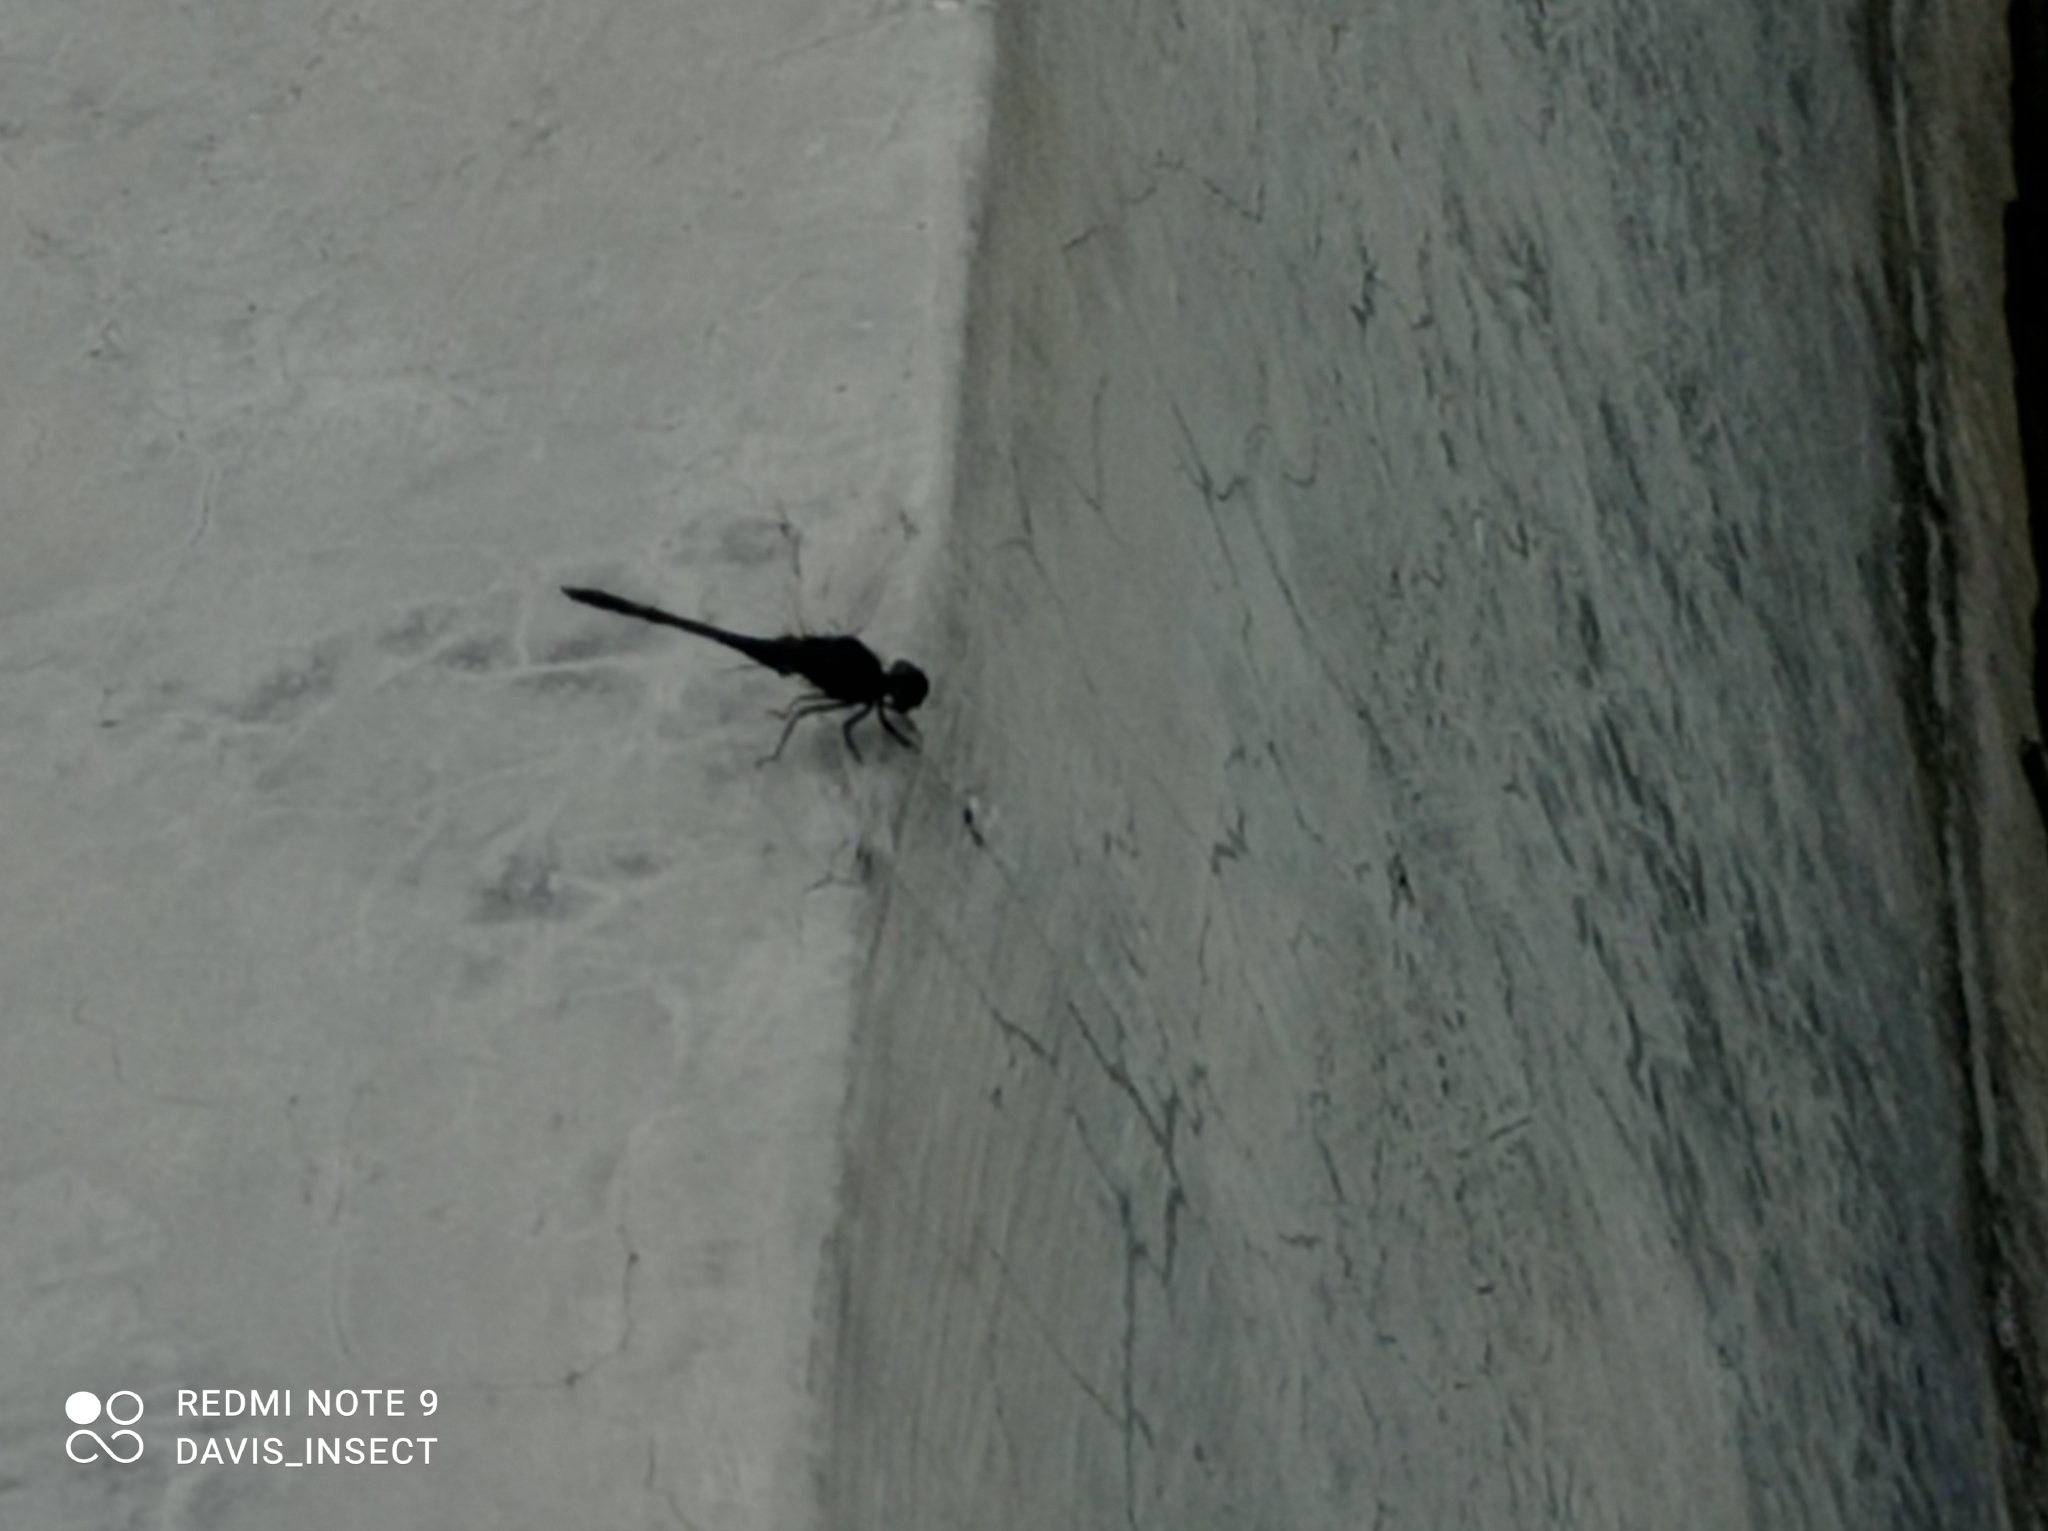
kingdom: Animalia
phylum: Arthropoda
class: Insecta
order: Odonata
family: Libellulidae
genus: Trithemis
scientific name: Trithemis festiva
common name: Indigo dropwing
